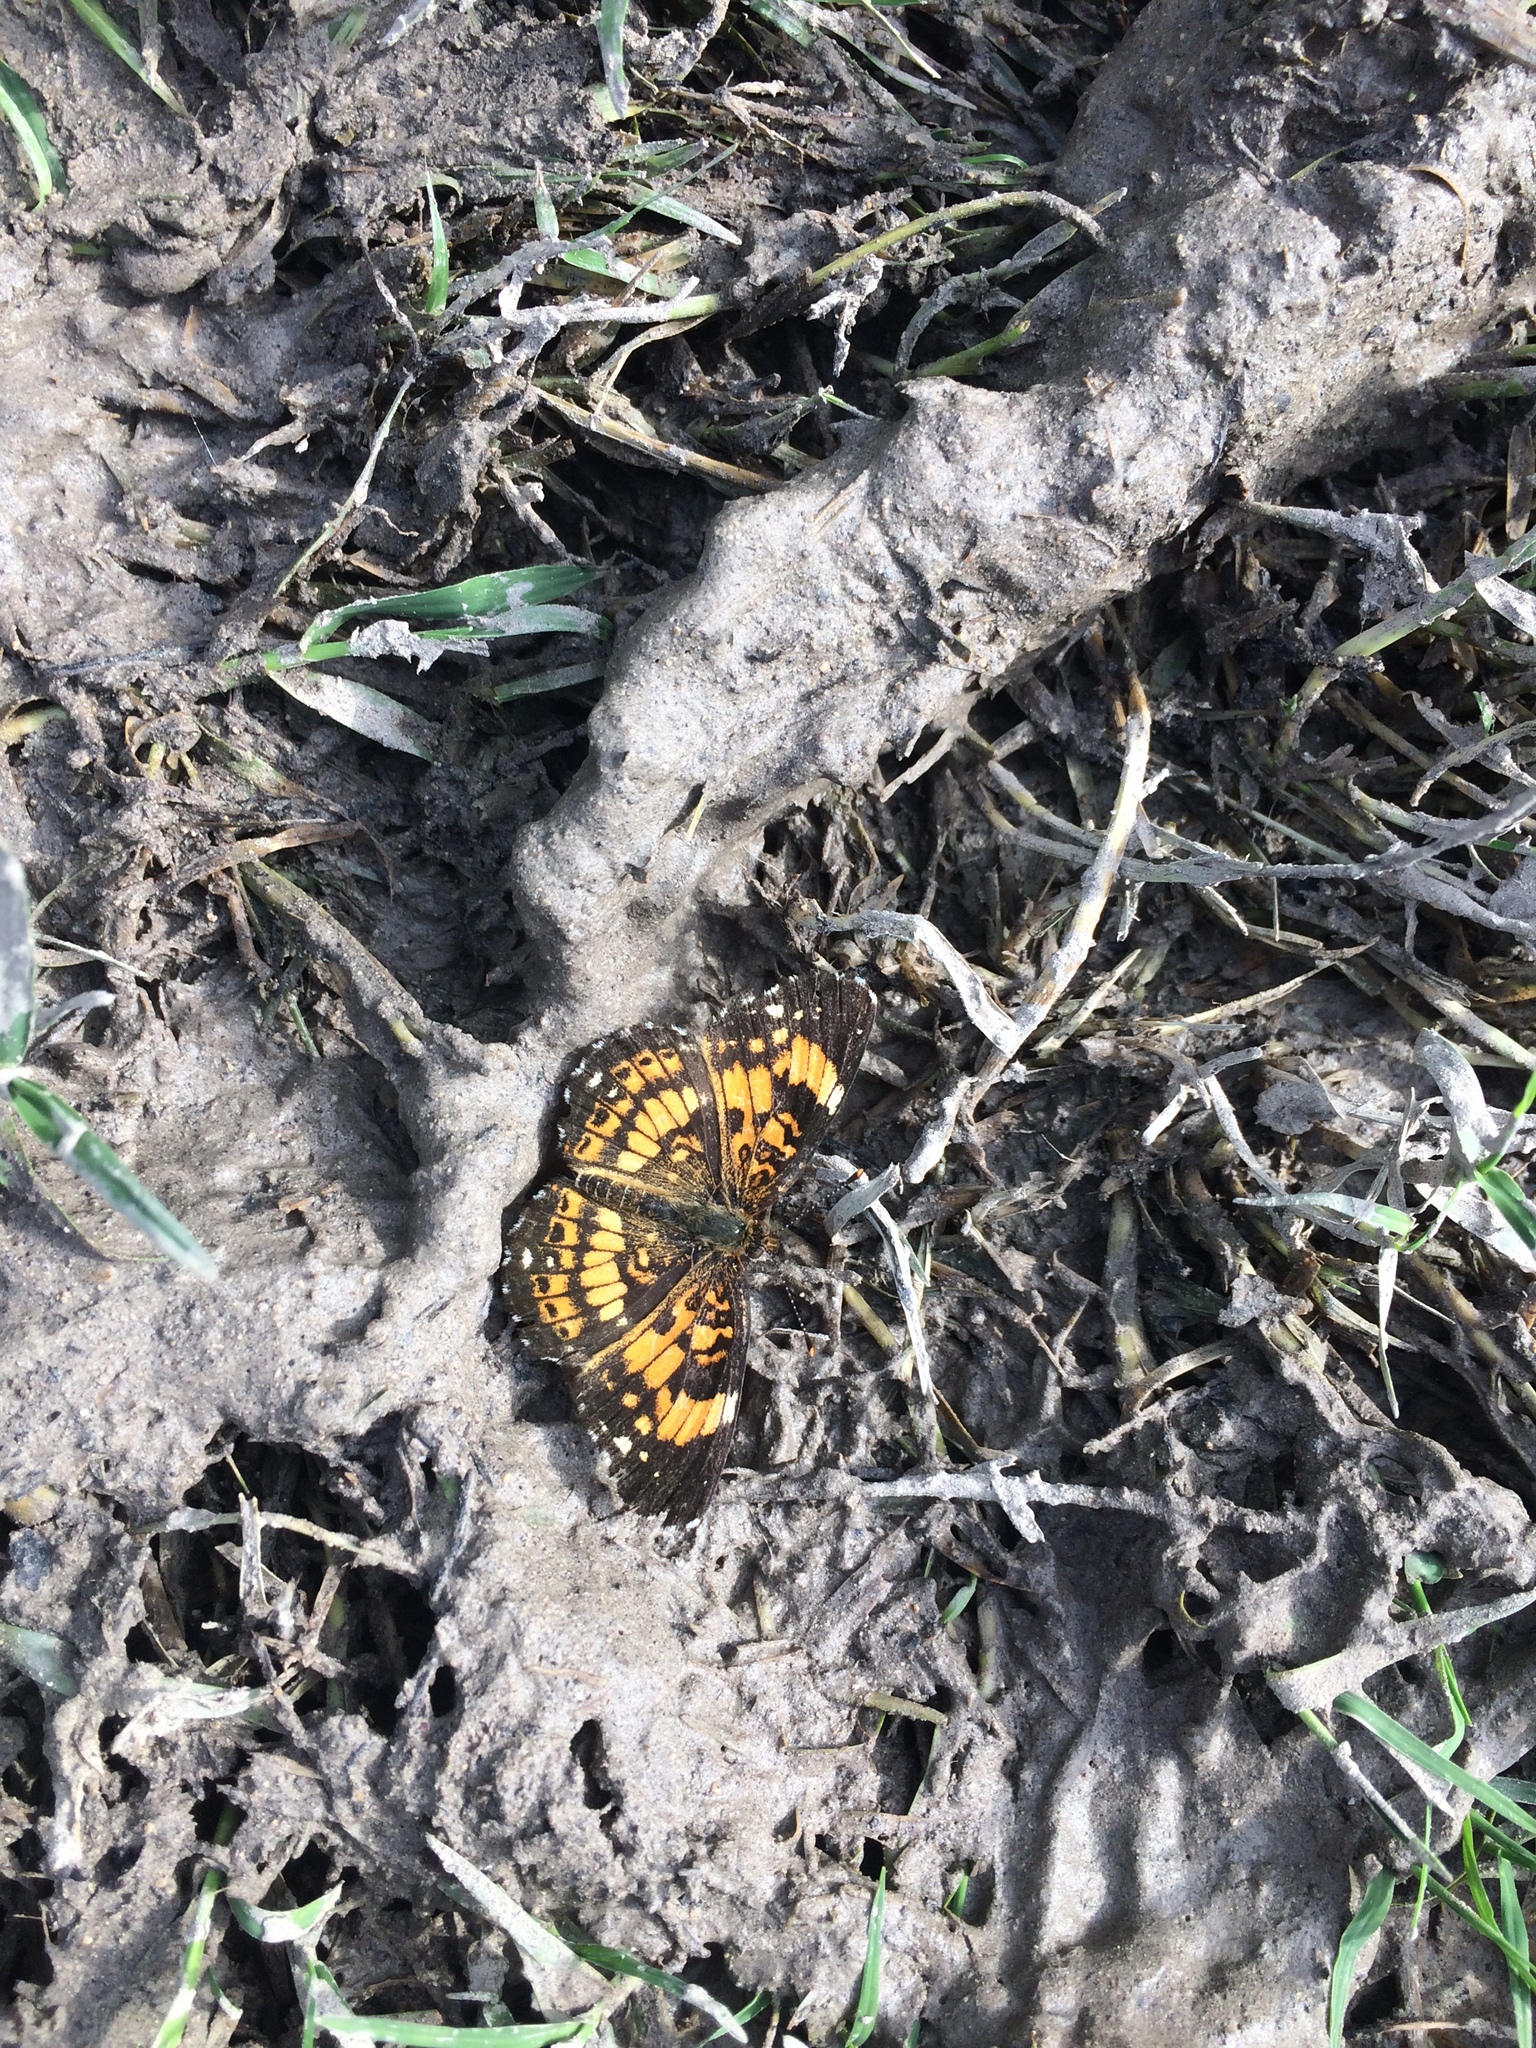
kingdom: Animalia
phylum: Arthropoda
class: Insecta
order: Lepidoptera
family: Nymphalidae
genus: Chlosyne
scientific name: Chlosyne nycteis
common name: Silvery checkerspot
